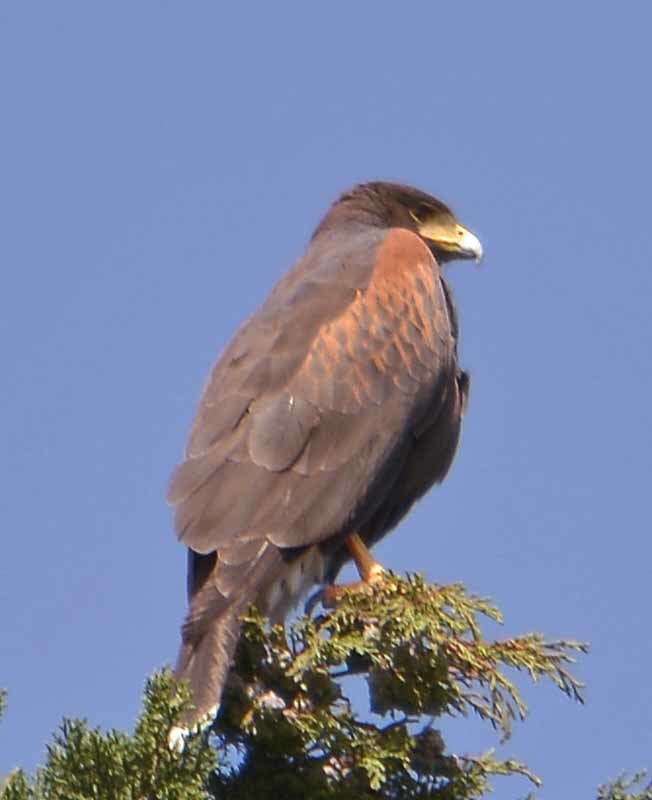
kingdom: Animalia
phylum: Chordata
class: Aves
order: Accipitriformes
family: Accipitridae
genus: Parabuteo
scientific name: Parabuteo unicinctus
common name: Harris's hawk
